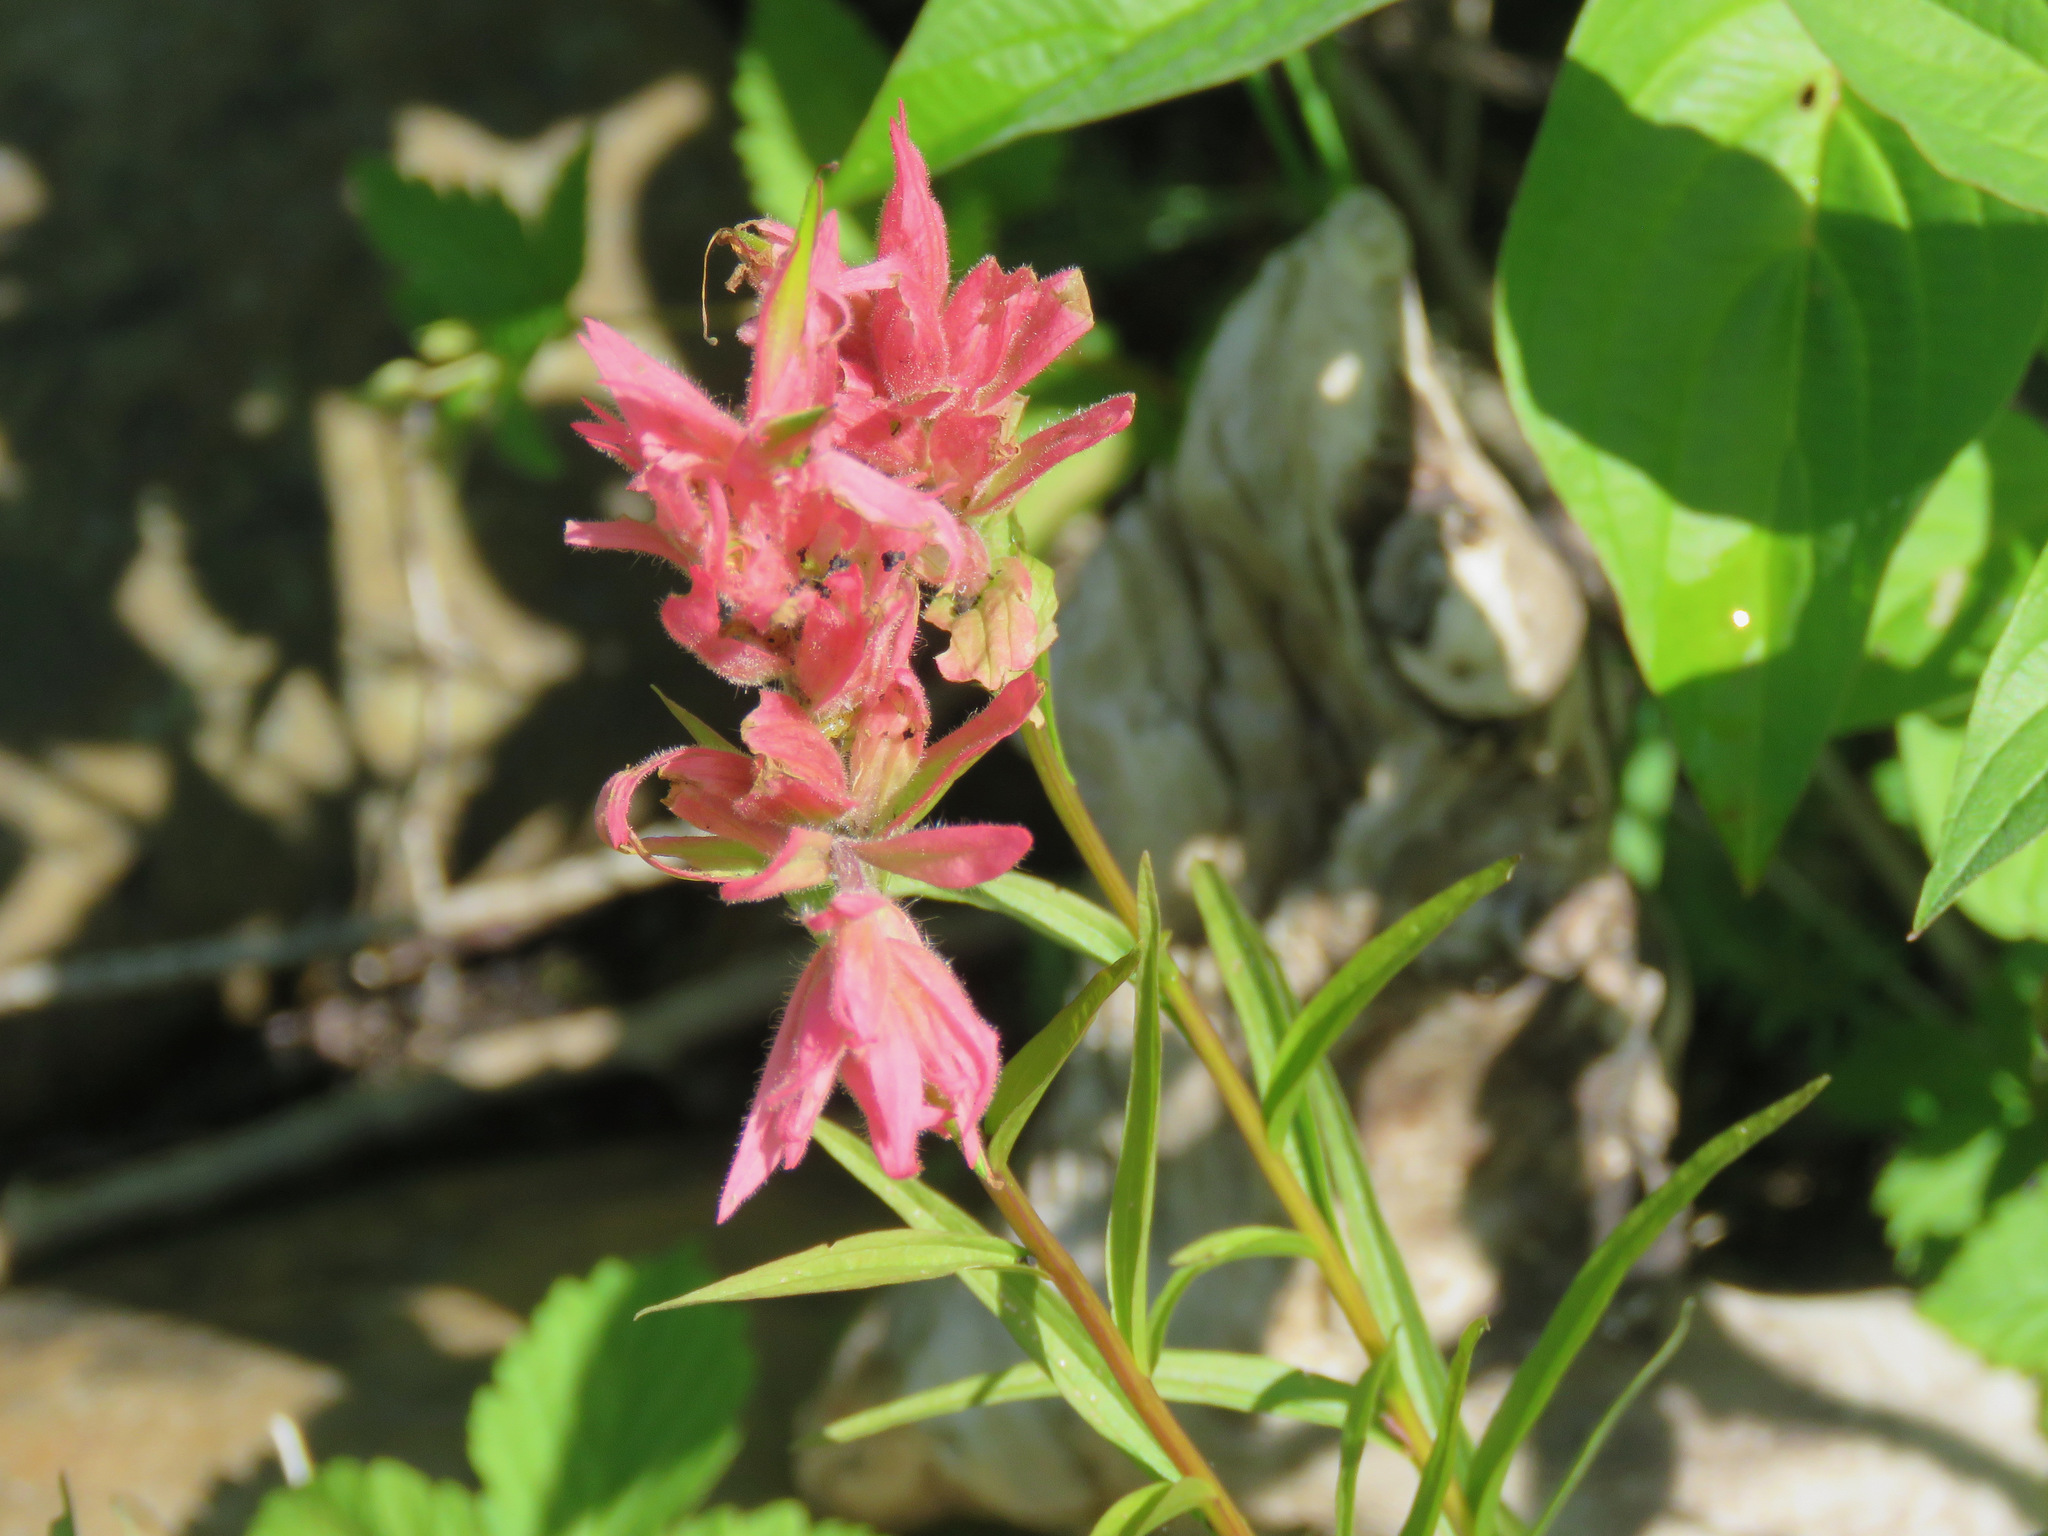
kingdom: Plantae
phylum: Tracheophyta
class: Magnoliopsida
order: Lamiales
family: Orobanchaceae
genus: Castilleja
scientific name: Castilleja miniata
